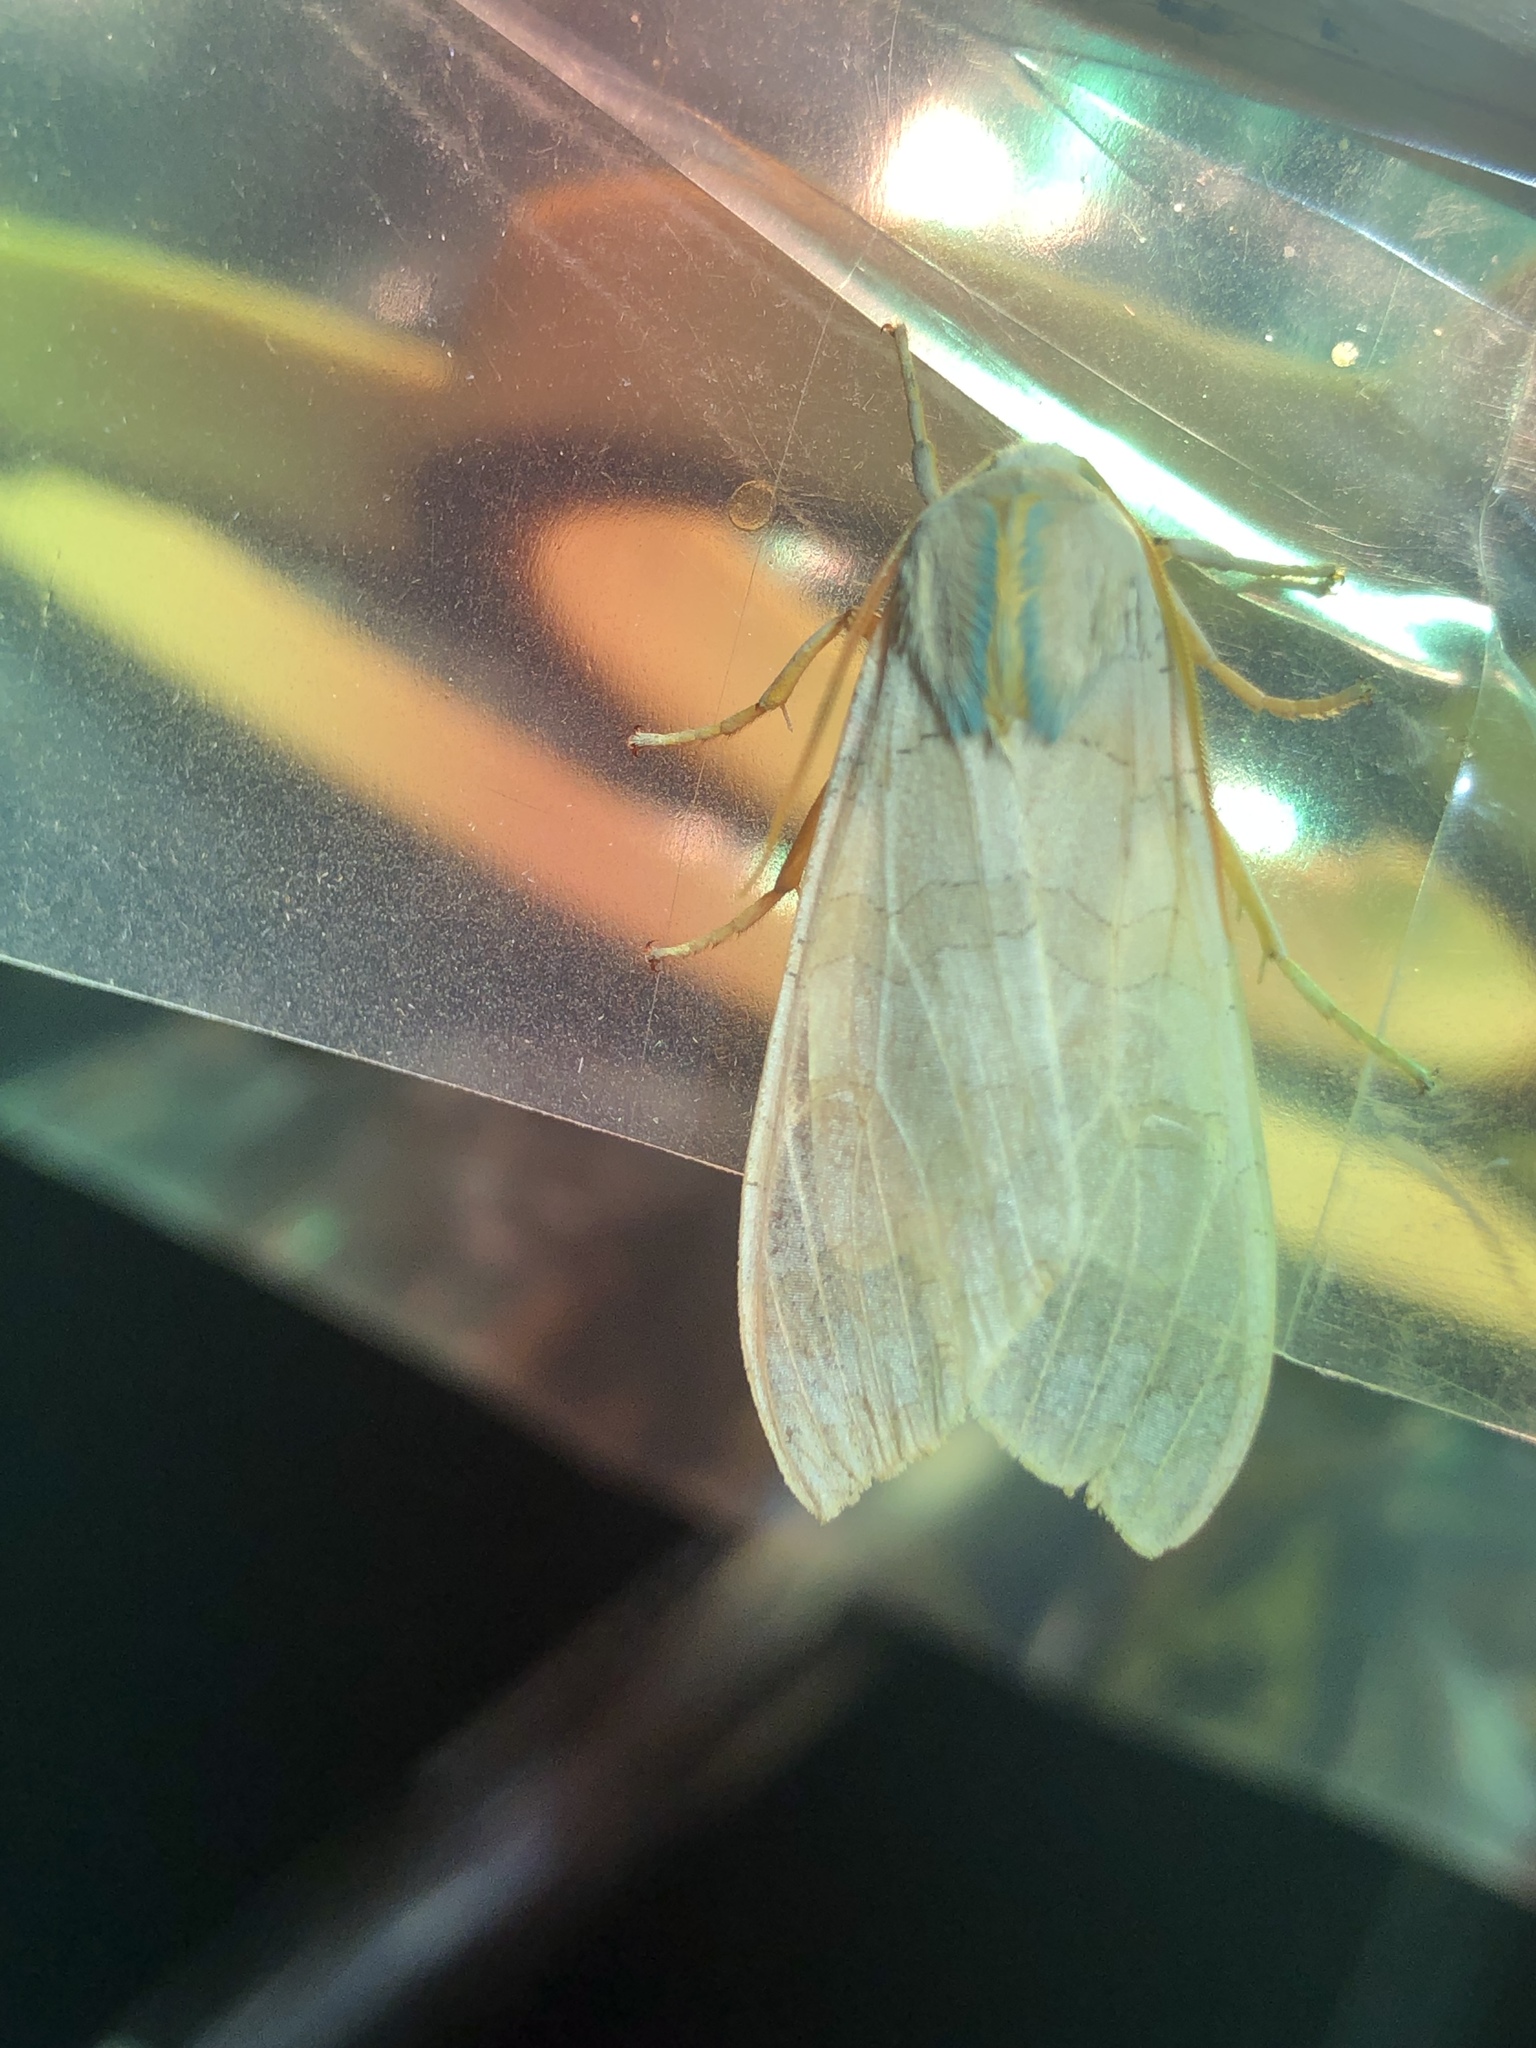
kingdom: Animalia
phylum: Arthropoda
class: Insecta
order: Lepidoptera
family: Erebidae
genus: Halysidota
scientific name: Halysidota
